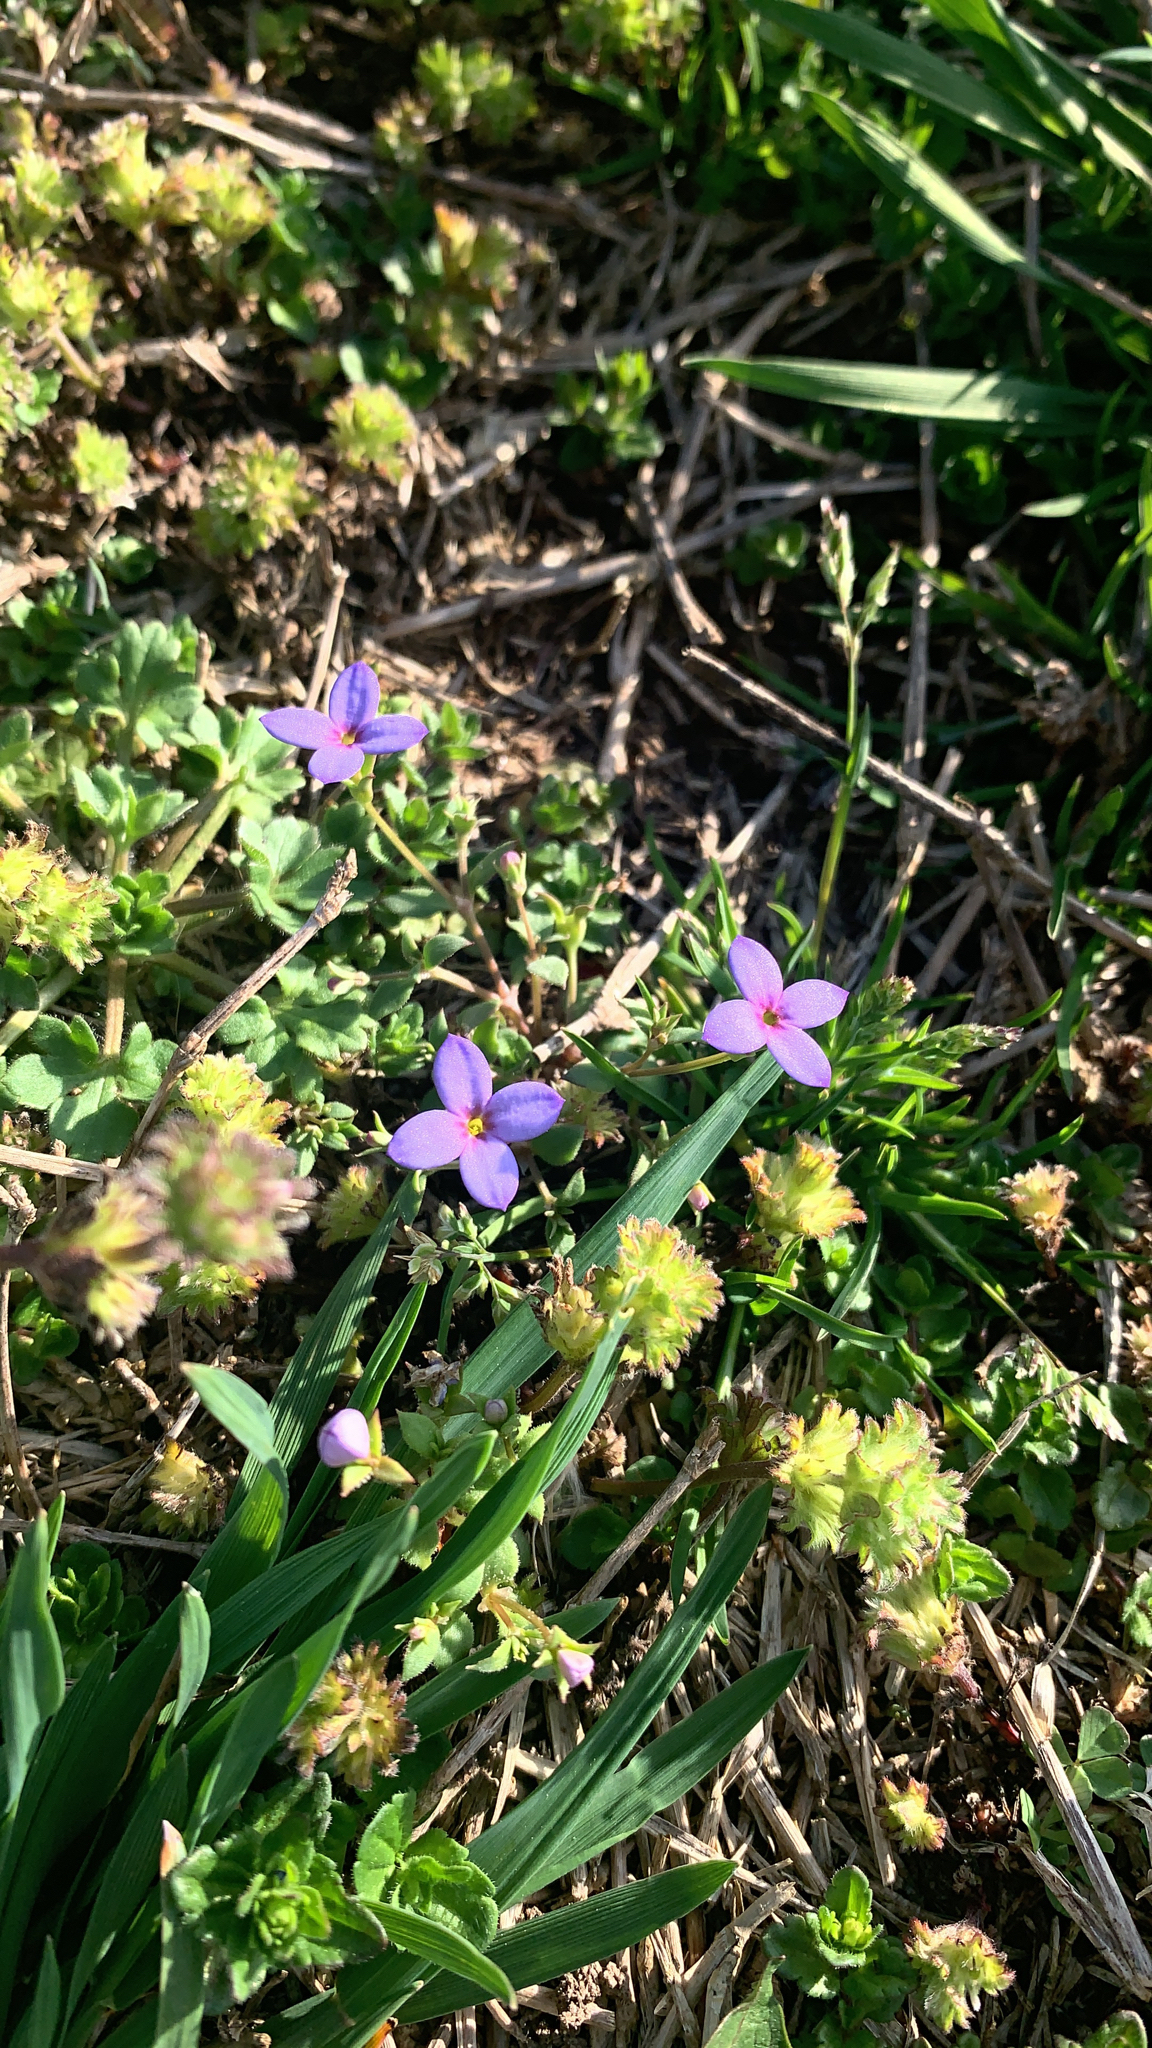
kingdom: Plantae
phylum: Tracheophyta
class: Magnoliopsida
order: Gentianales
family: Rubiaceae
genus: Houstonia
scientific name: Houstonia pusilla
